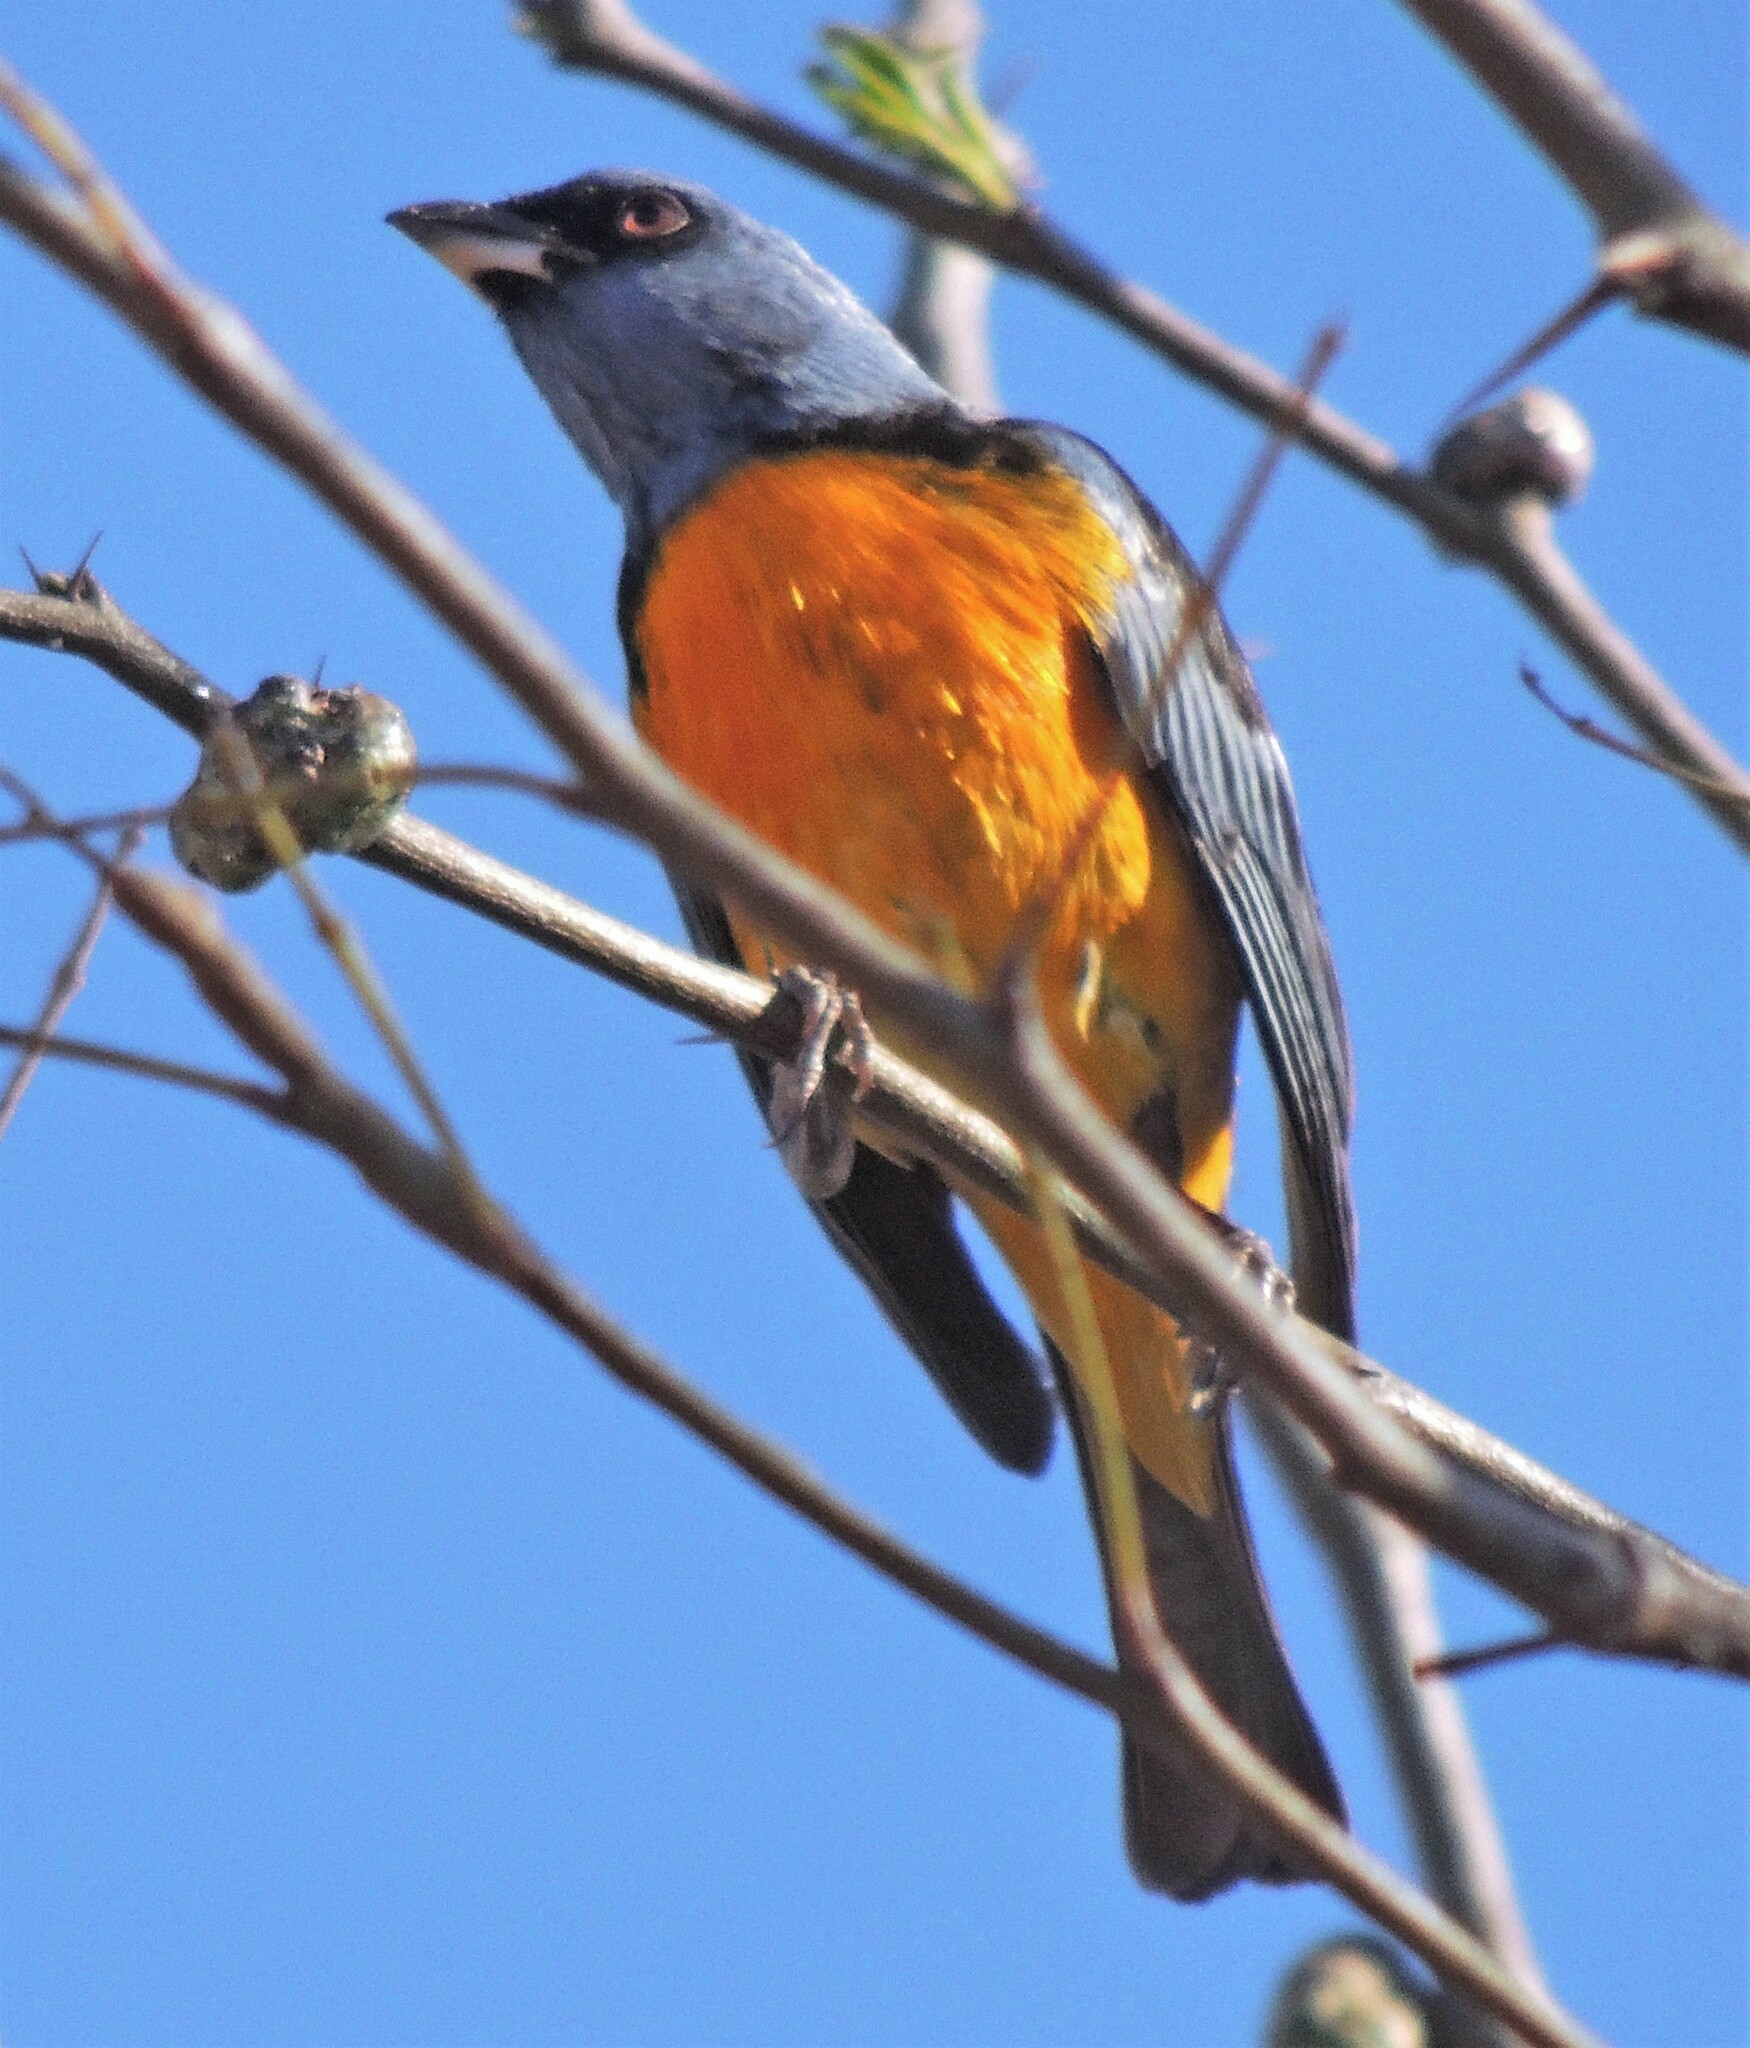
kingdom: Animalia
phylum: Chordata
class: Aves
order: Passeriformes
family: Thraupidae
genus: Rauenia
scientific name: Rauenia bonariensis
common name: Blue-and-yellow tanager
